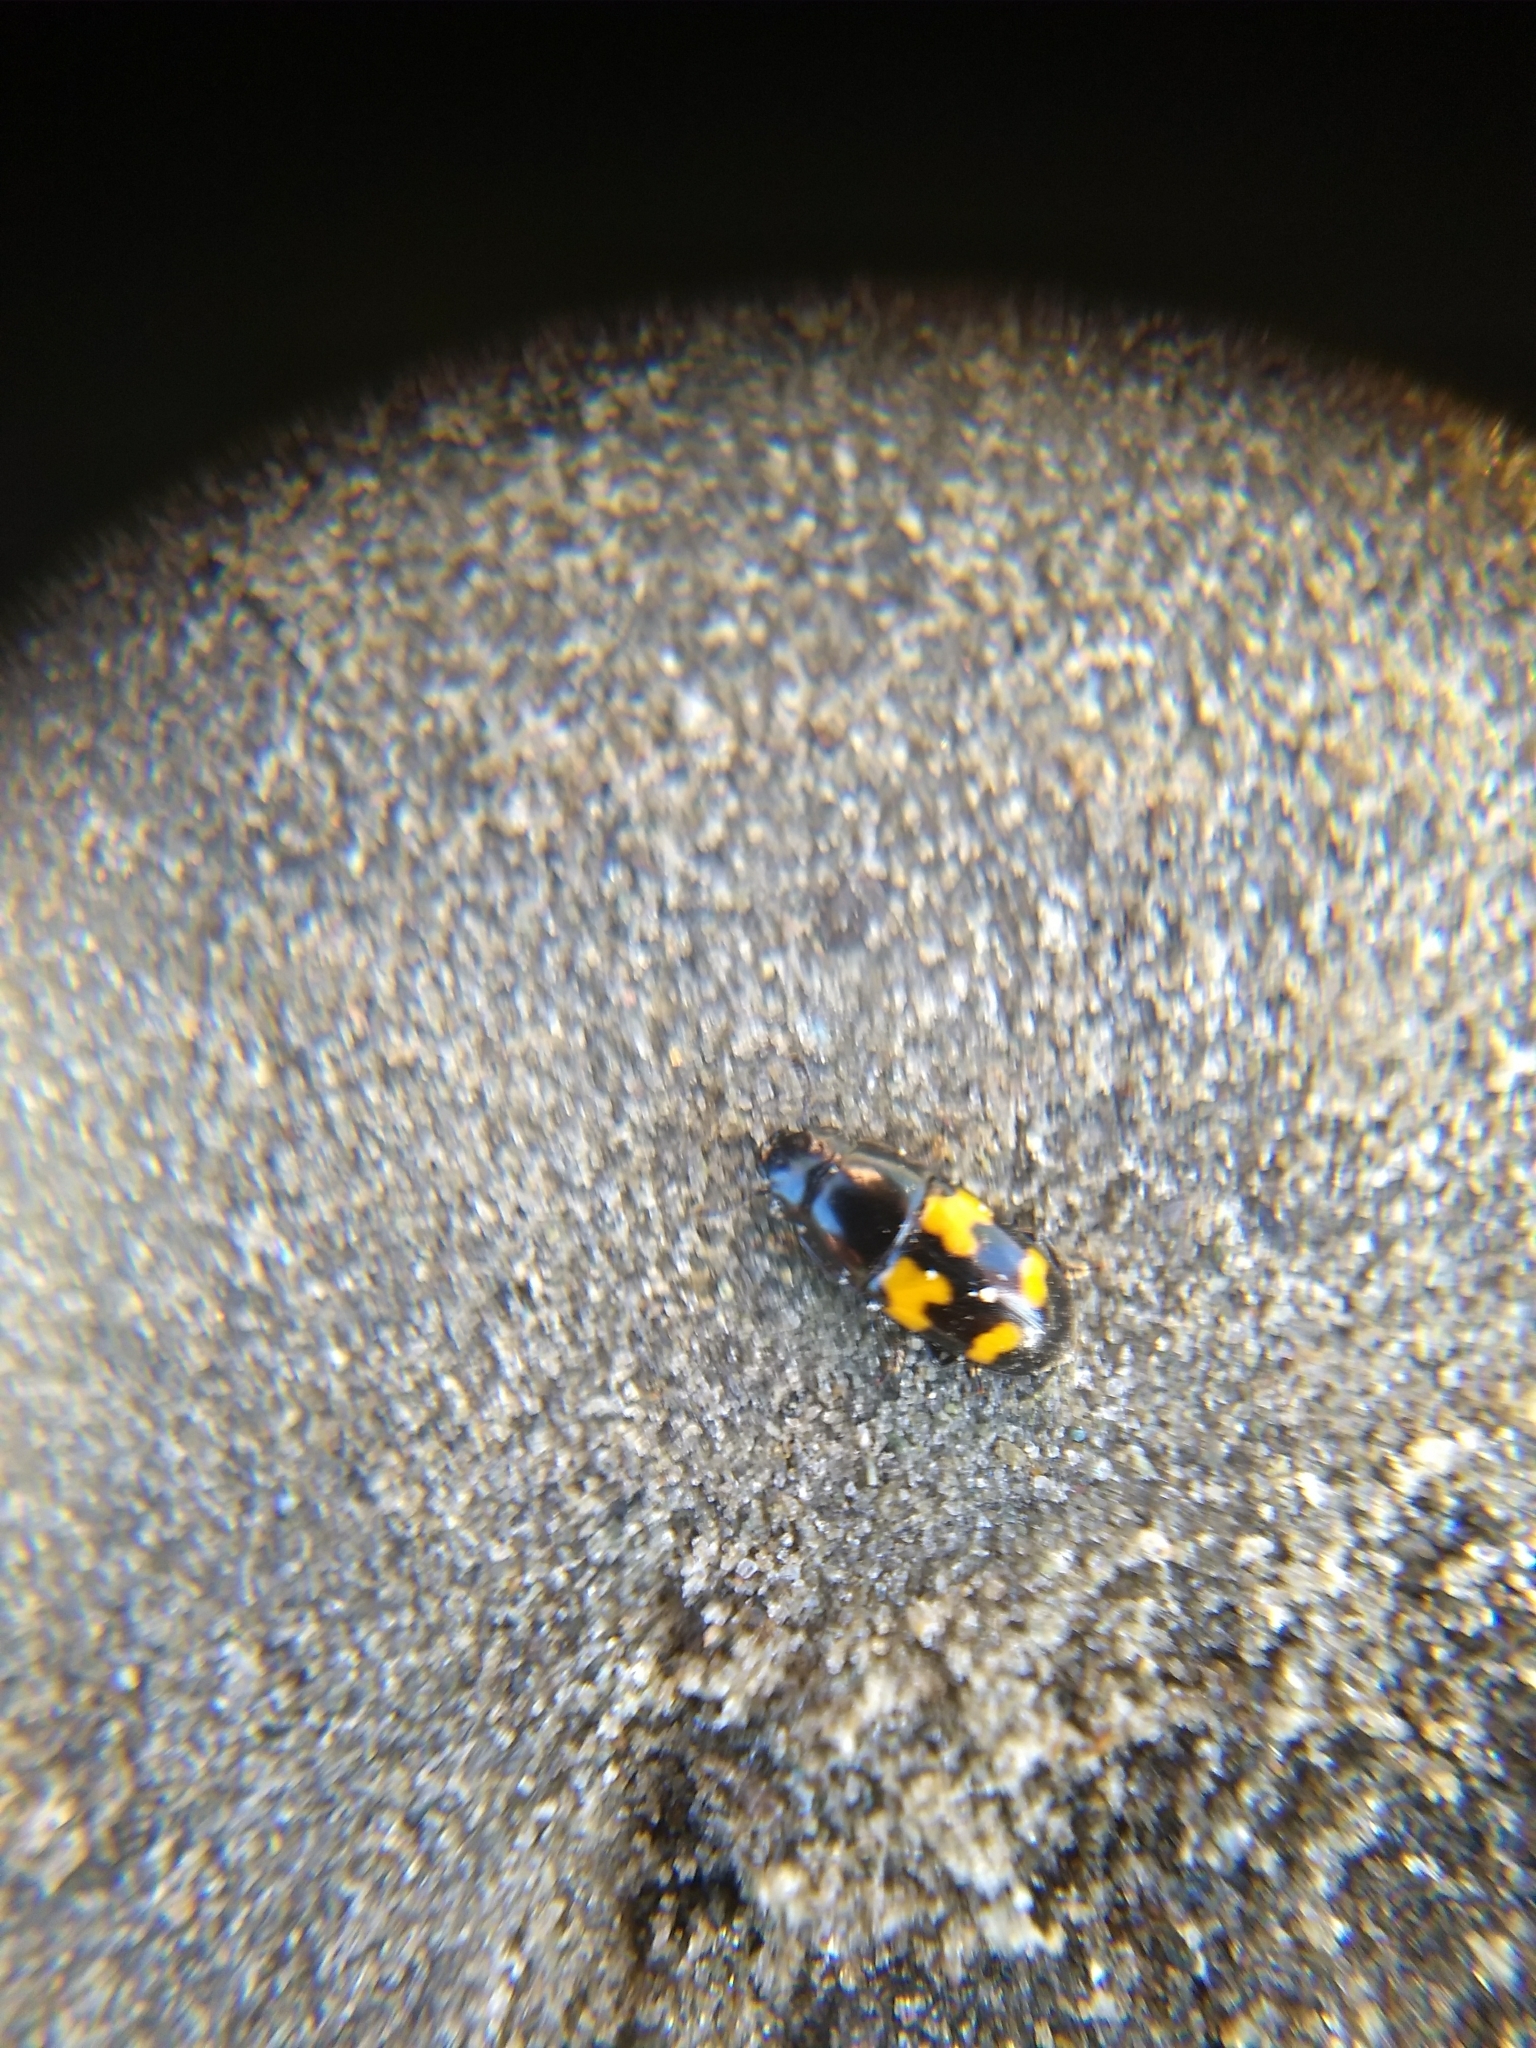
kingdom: Animalia
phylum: Arthropoda
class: Insecta
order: Coleoptera
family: Nitidulidae
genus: Glischrochilus
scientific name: Glischrochilus fasciatus
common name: Picnic beetle
